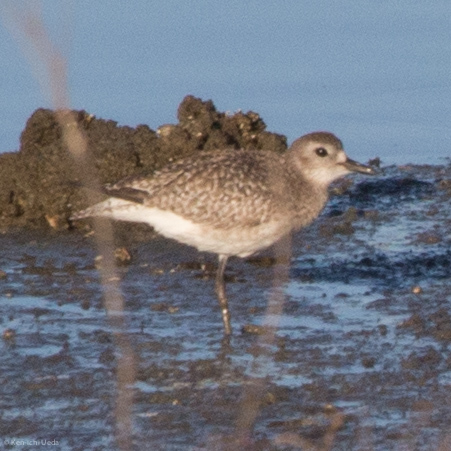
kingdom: Animalia
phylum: Chordata
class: Aves
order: Charadriiformes
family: Charadriidae
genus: Pluvialis
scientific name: Pluvialis squatarola
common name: Grey plover
